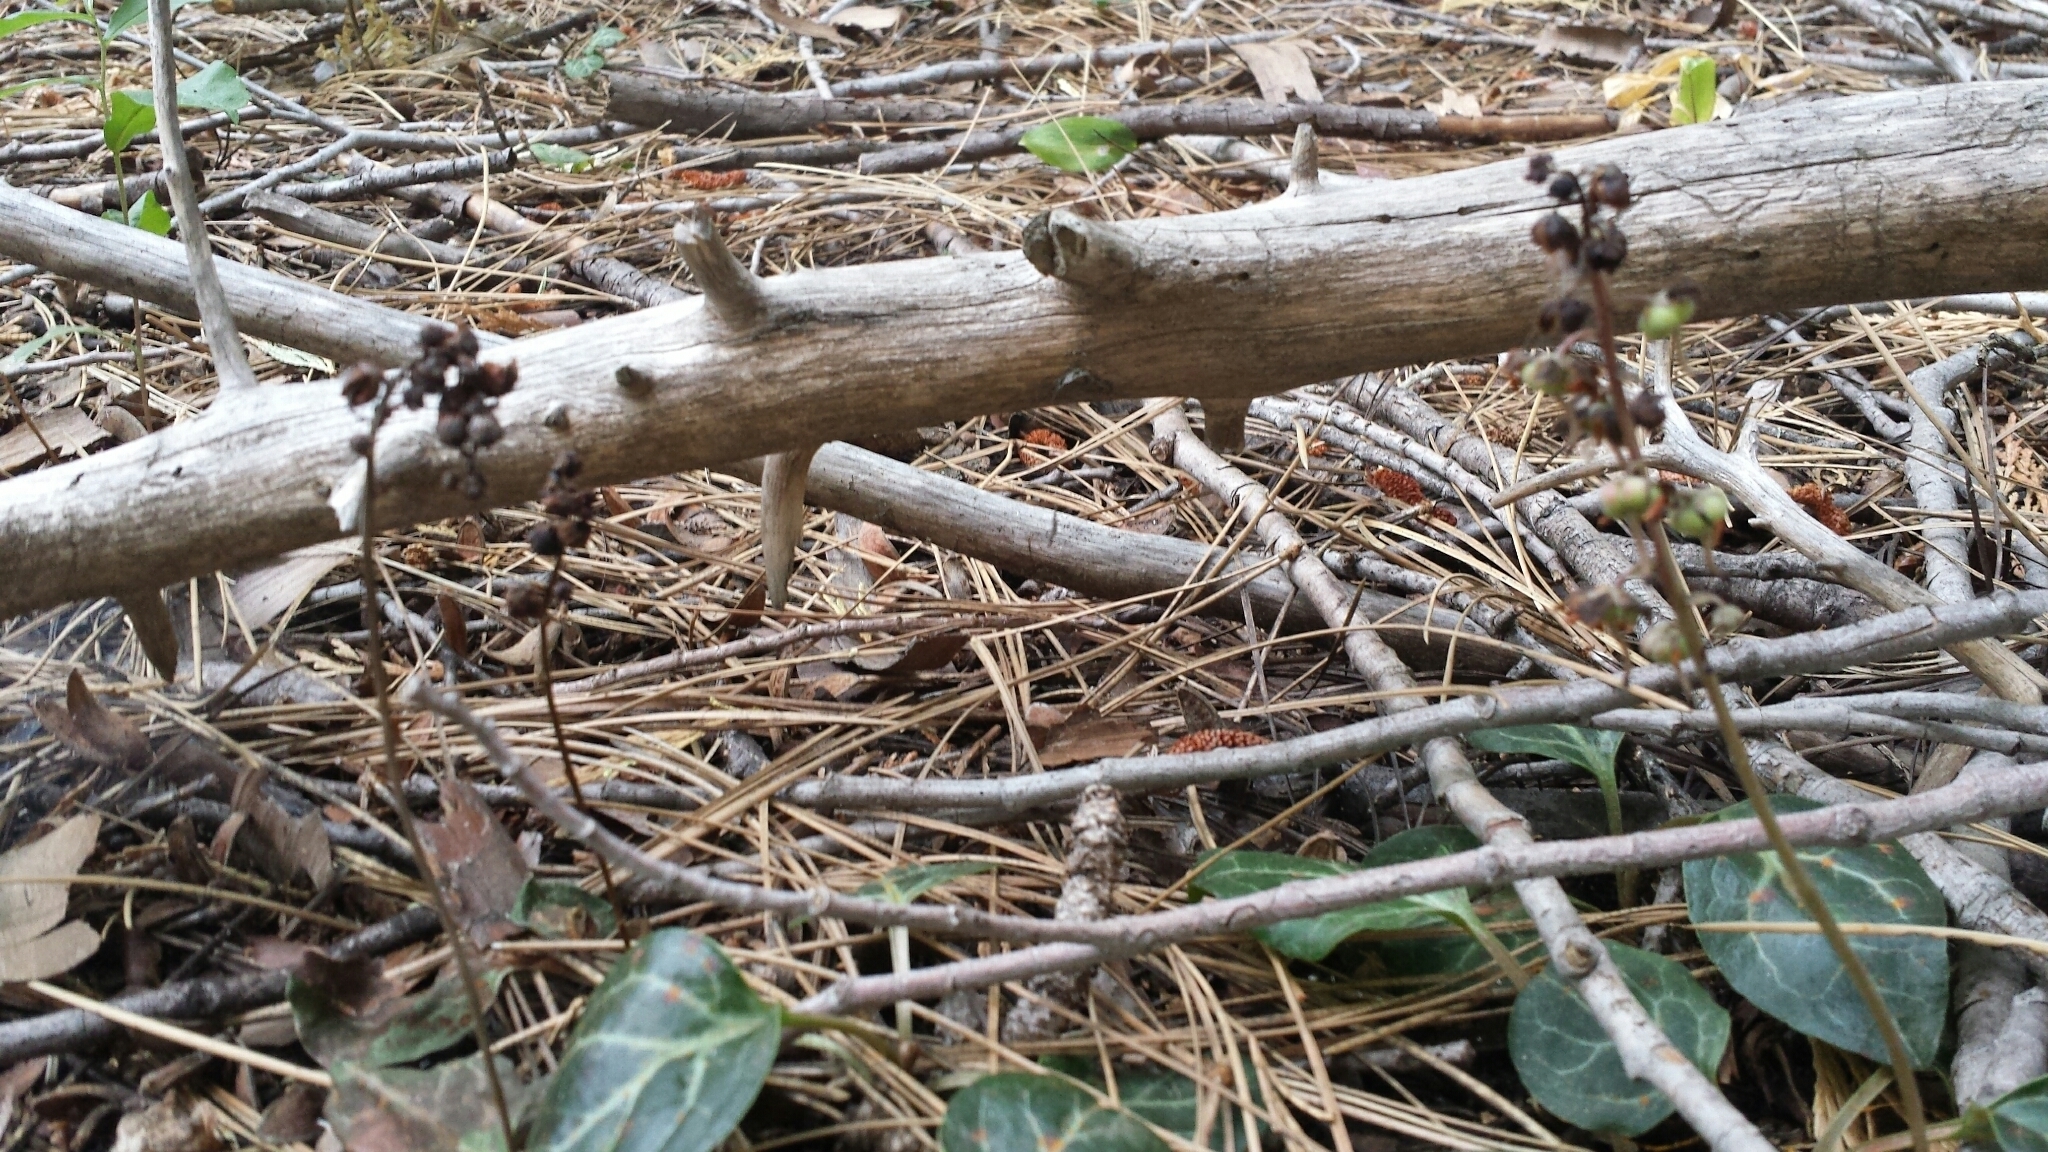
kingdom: Plantae
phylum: Tracheophyta
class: Magnoliopsida
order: Ericales
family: Ericaceae
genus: Pyrola
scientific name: Pyrola picta
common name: White-vein wintergreen
